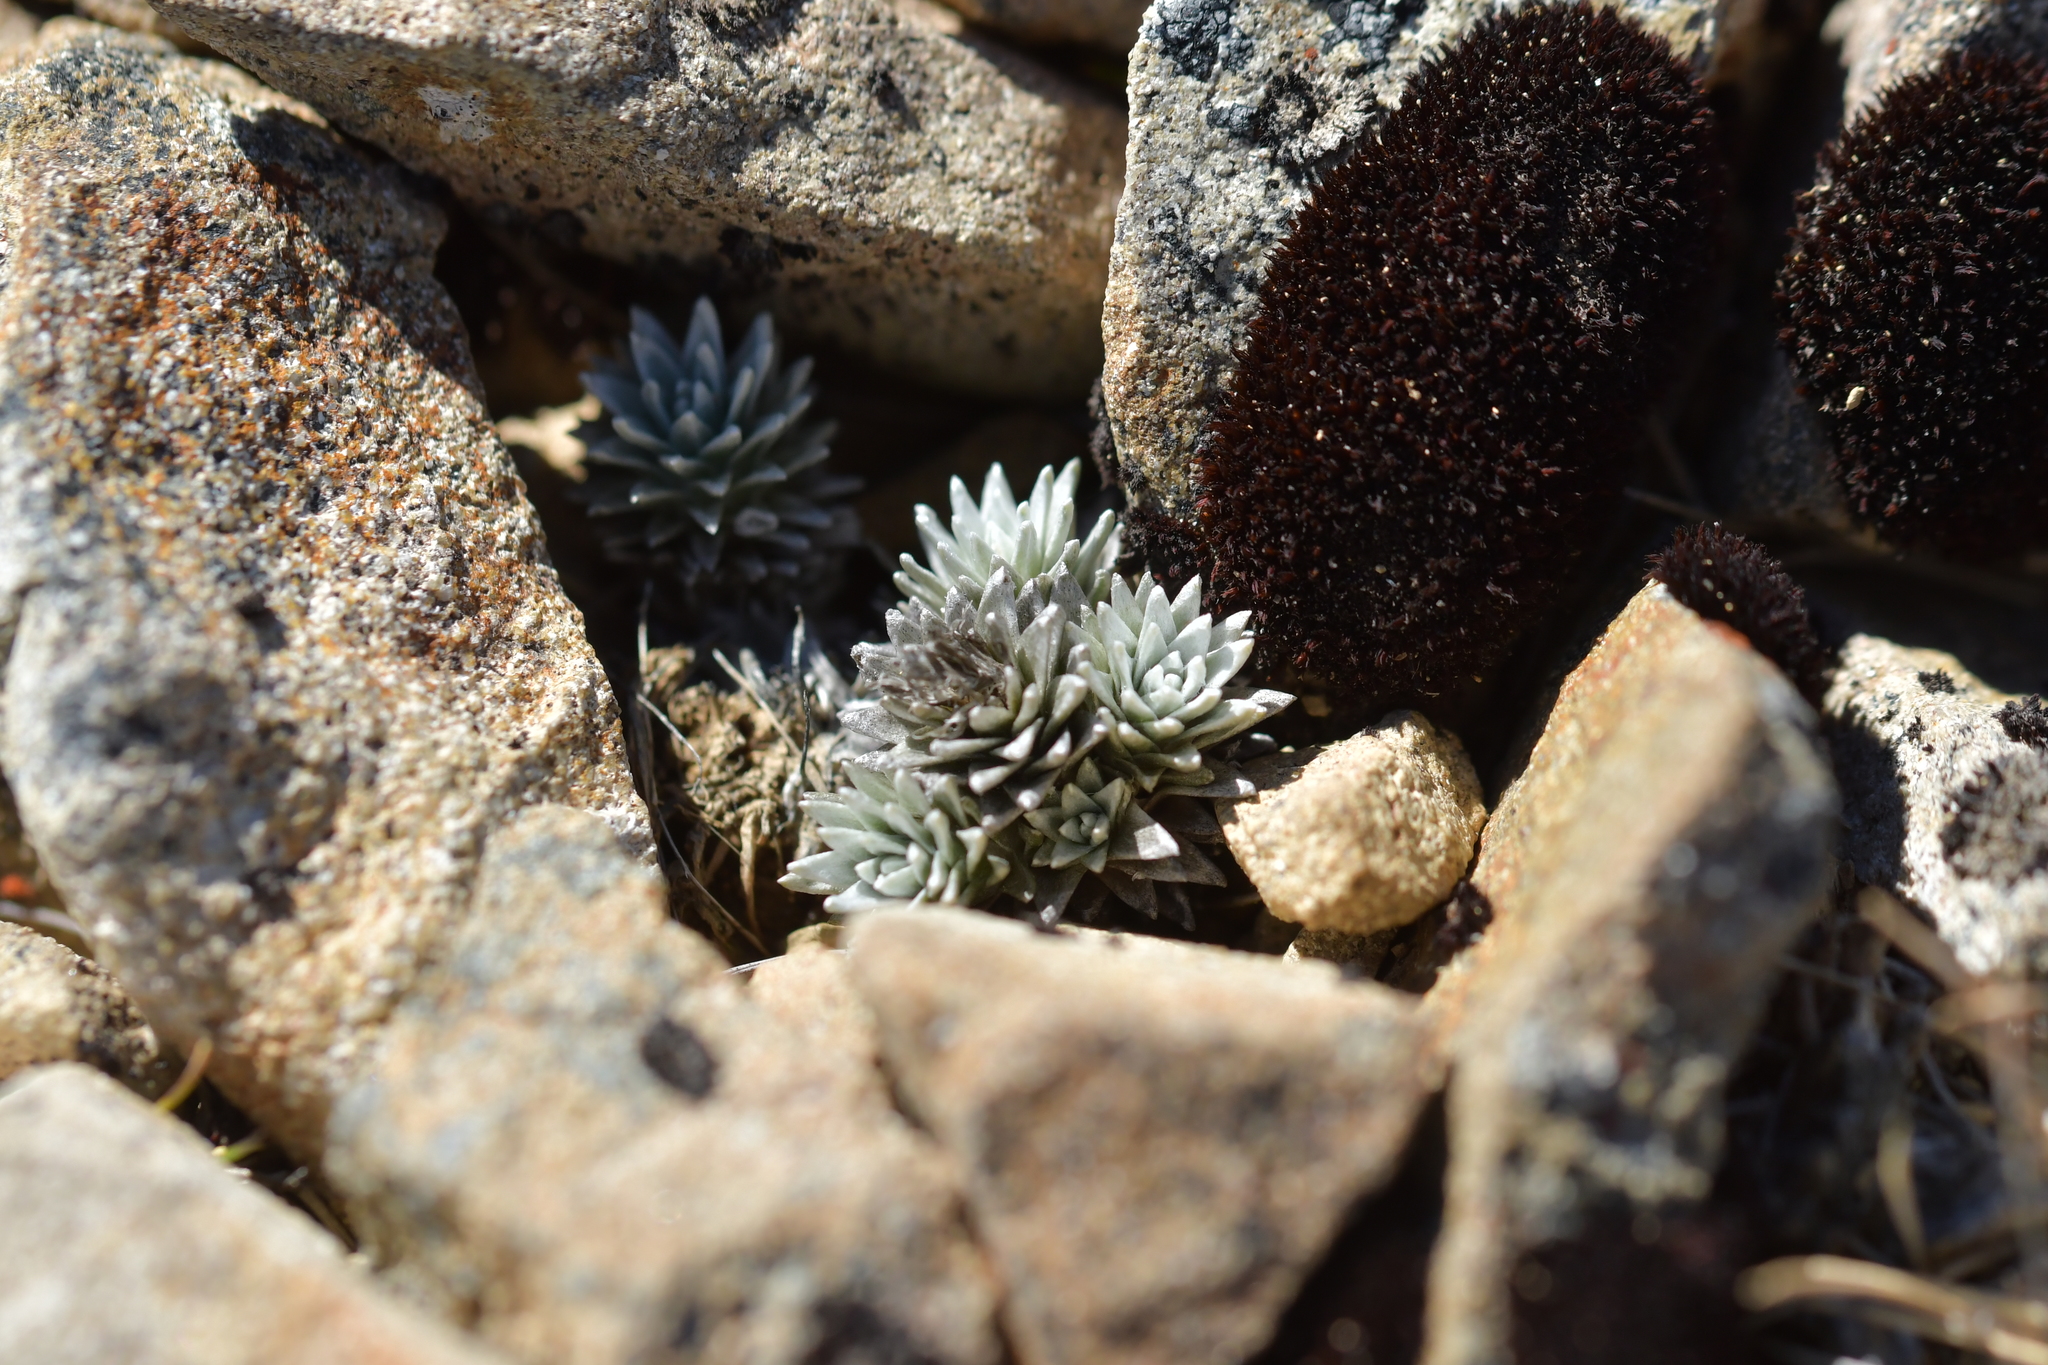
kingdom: Plantae
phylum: Tracheophyta
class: Magnoliopsida
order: Asterales
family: Asteraceae
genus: Raoulia
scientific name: Raoulia grandiflora
